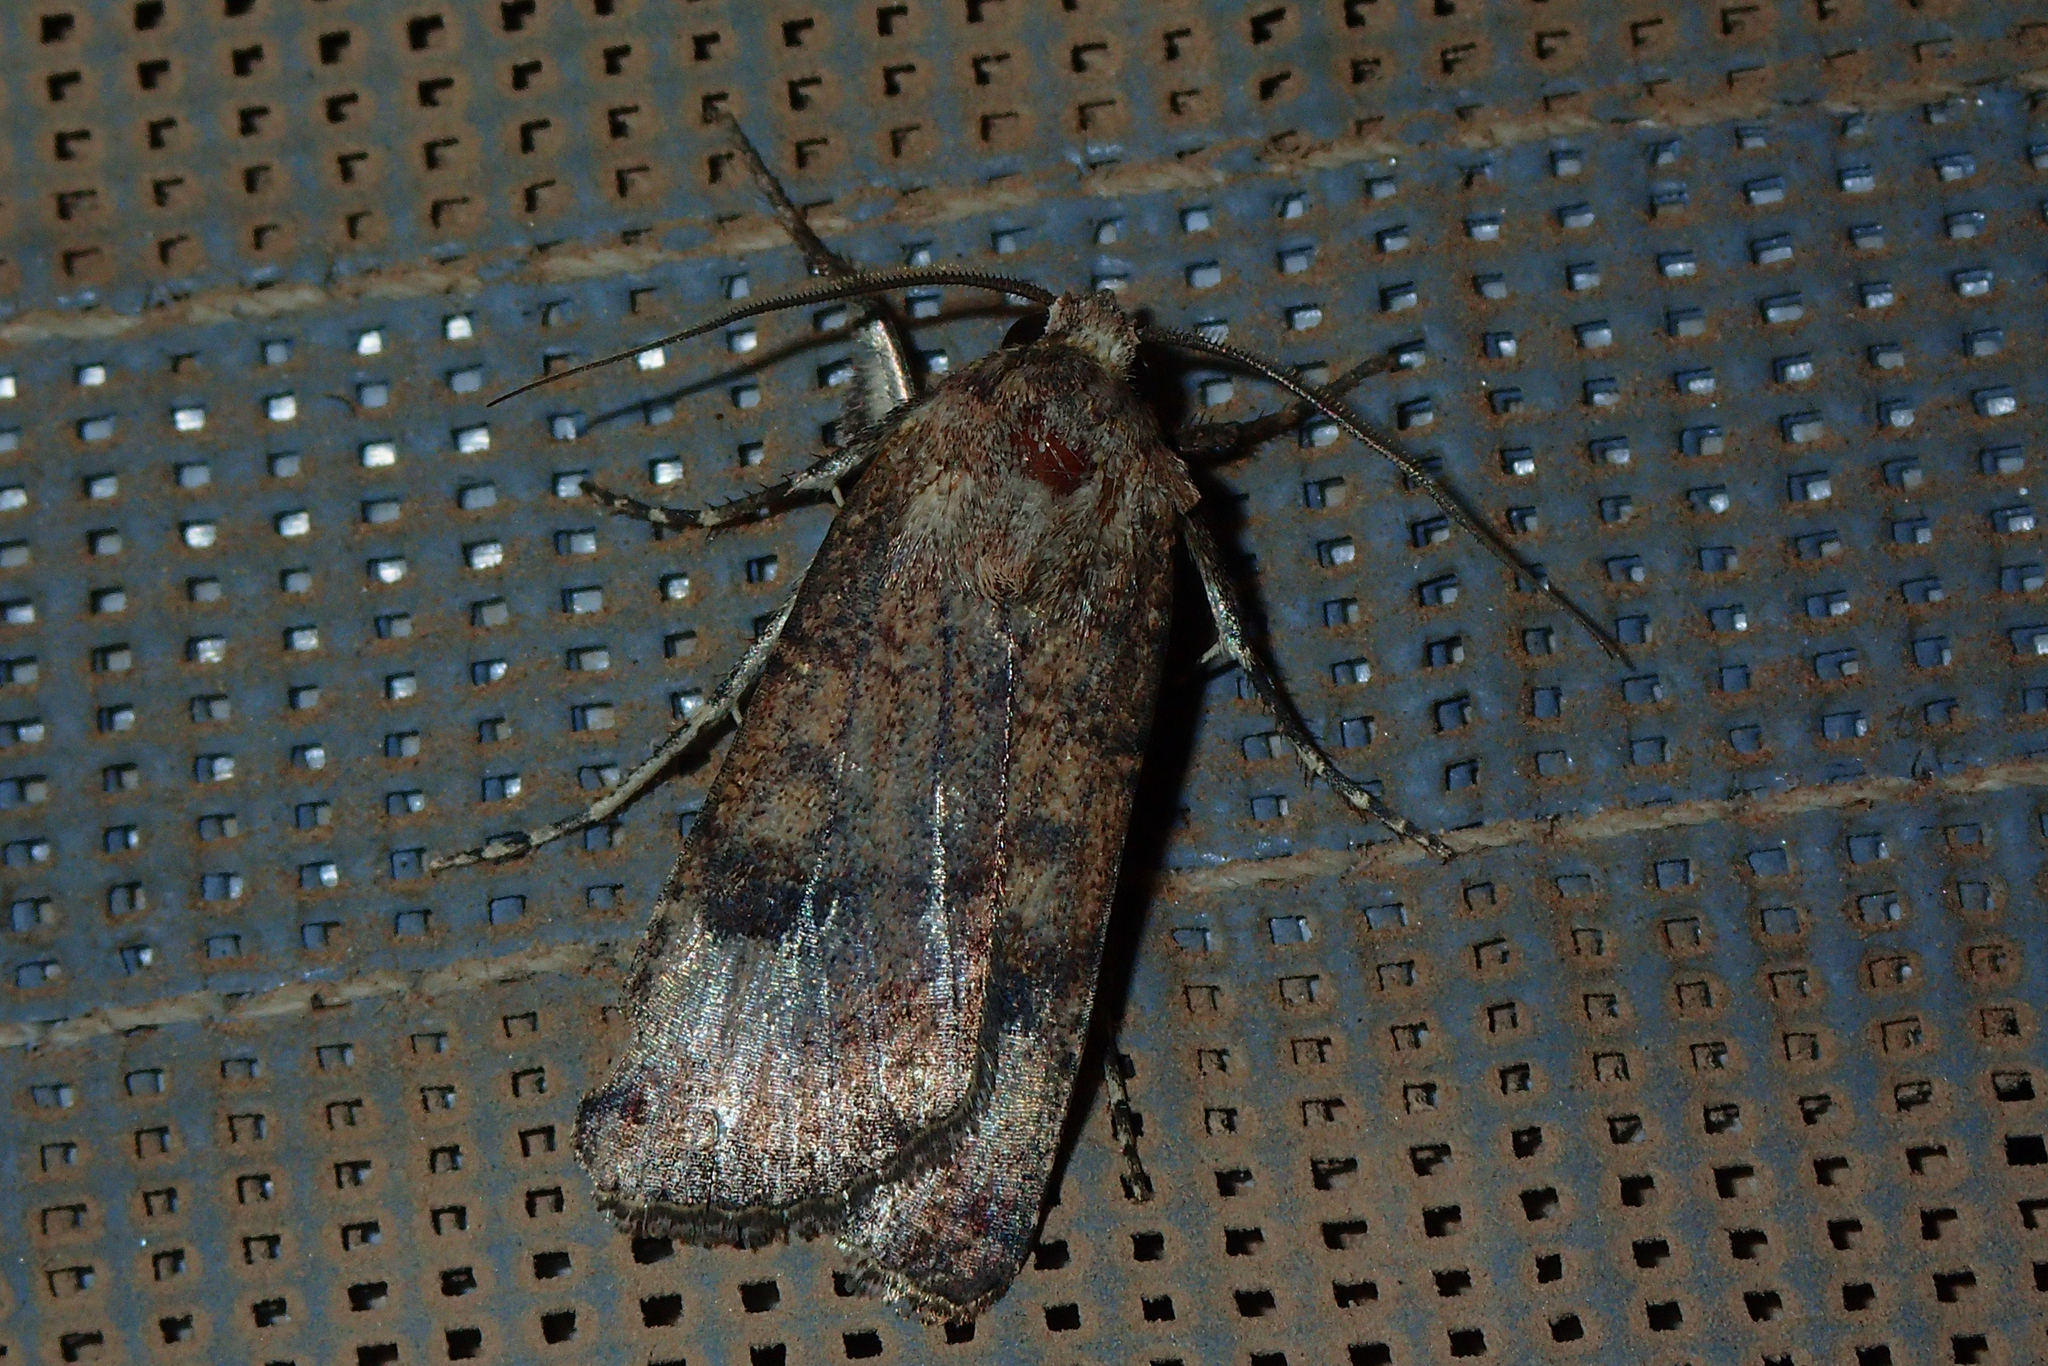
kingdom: Animalia
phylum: Arthropoda
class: Insecta
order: Lepidoptera
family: Noctuidae
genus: Agrotis
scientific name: Agrotis trux
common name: Crescent dart
